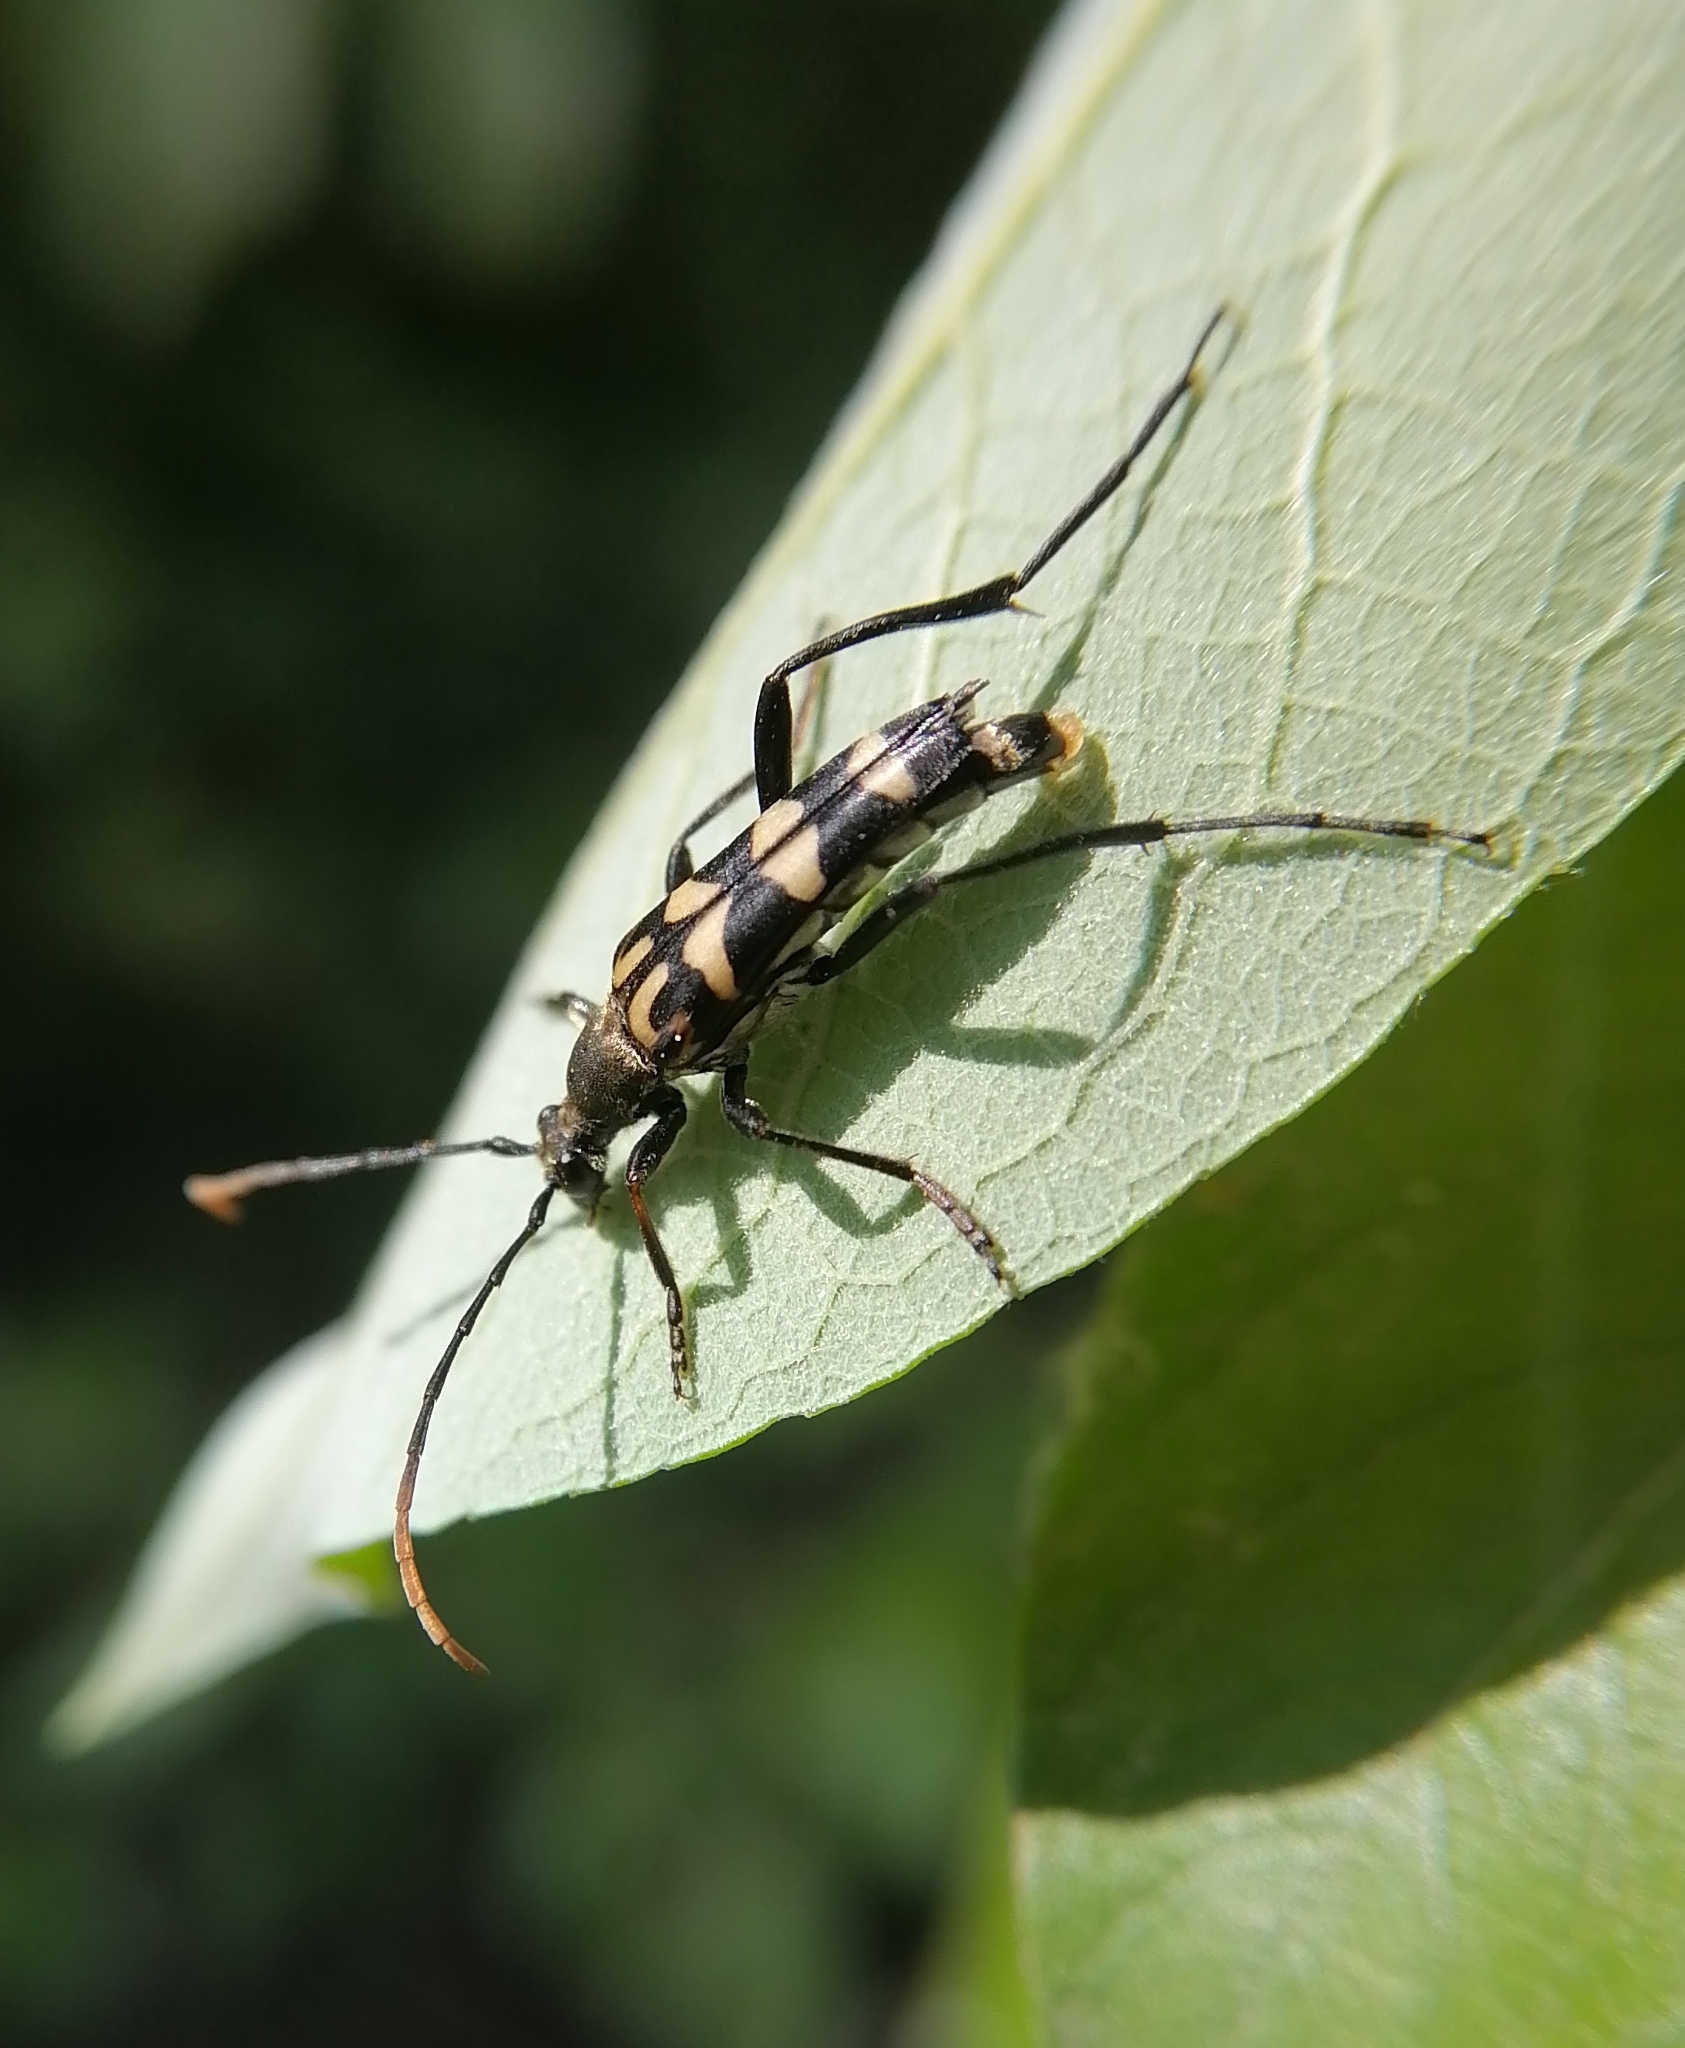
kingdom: Animalia
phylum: Arthropoda
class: Insecta
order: Coleoptera
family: Cerambycidae
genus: Leptura
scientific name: Leptura annularis
